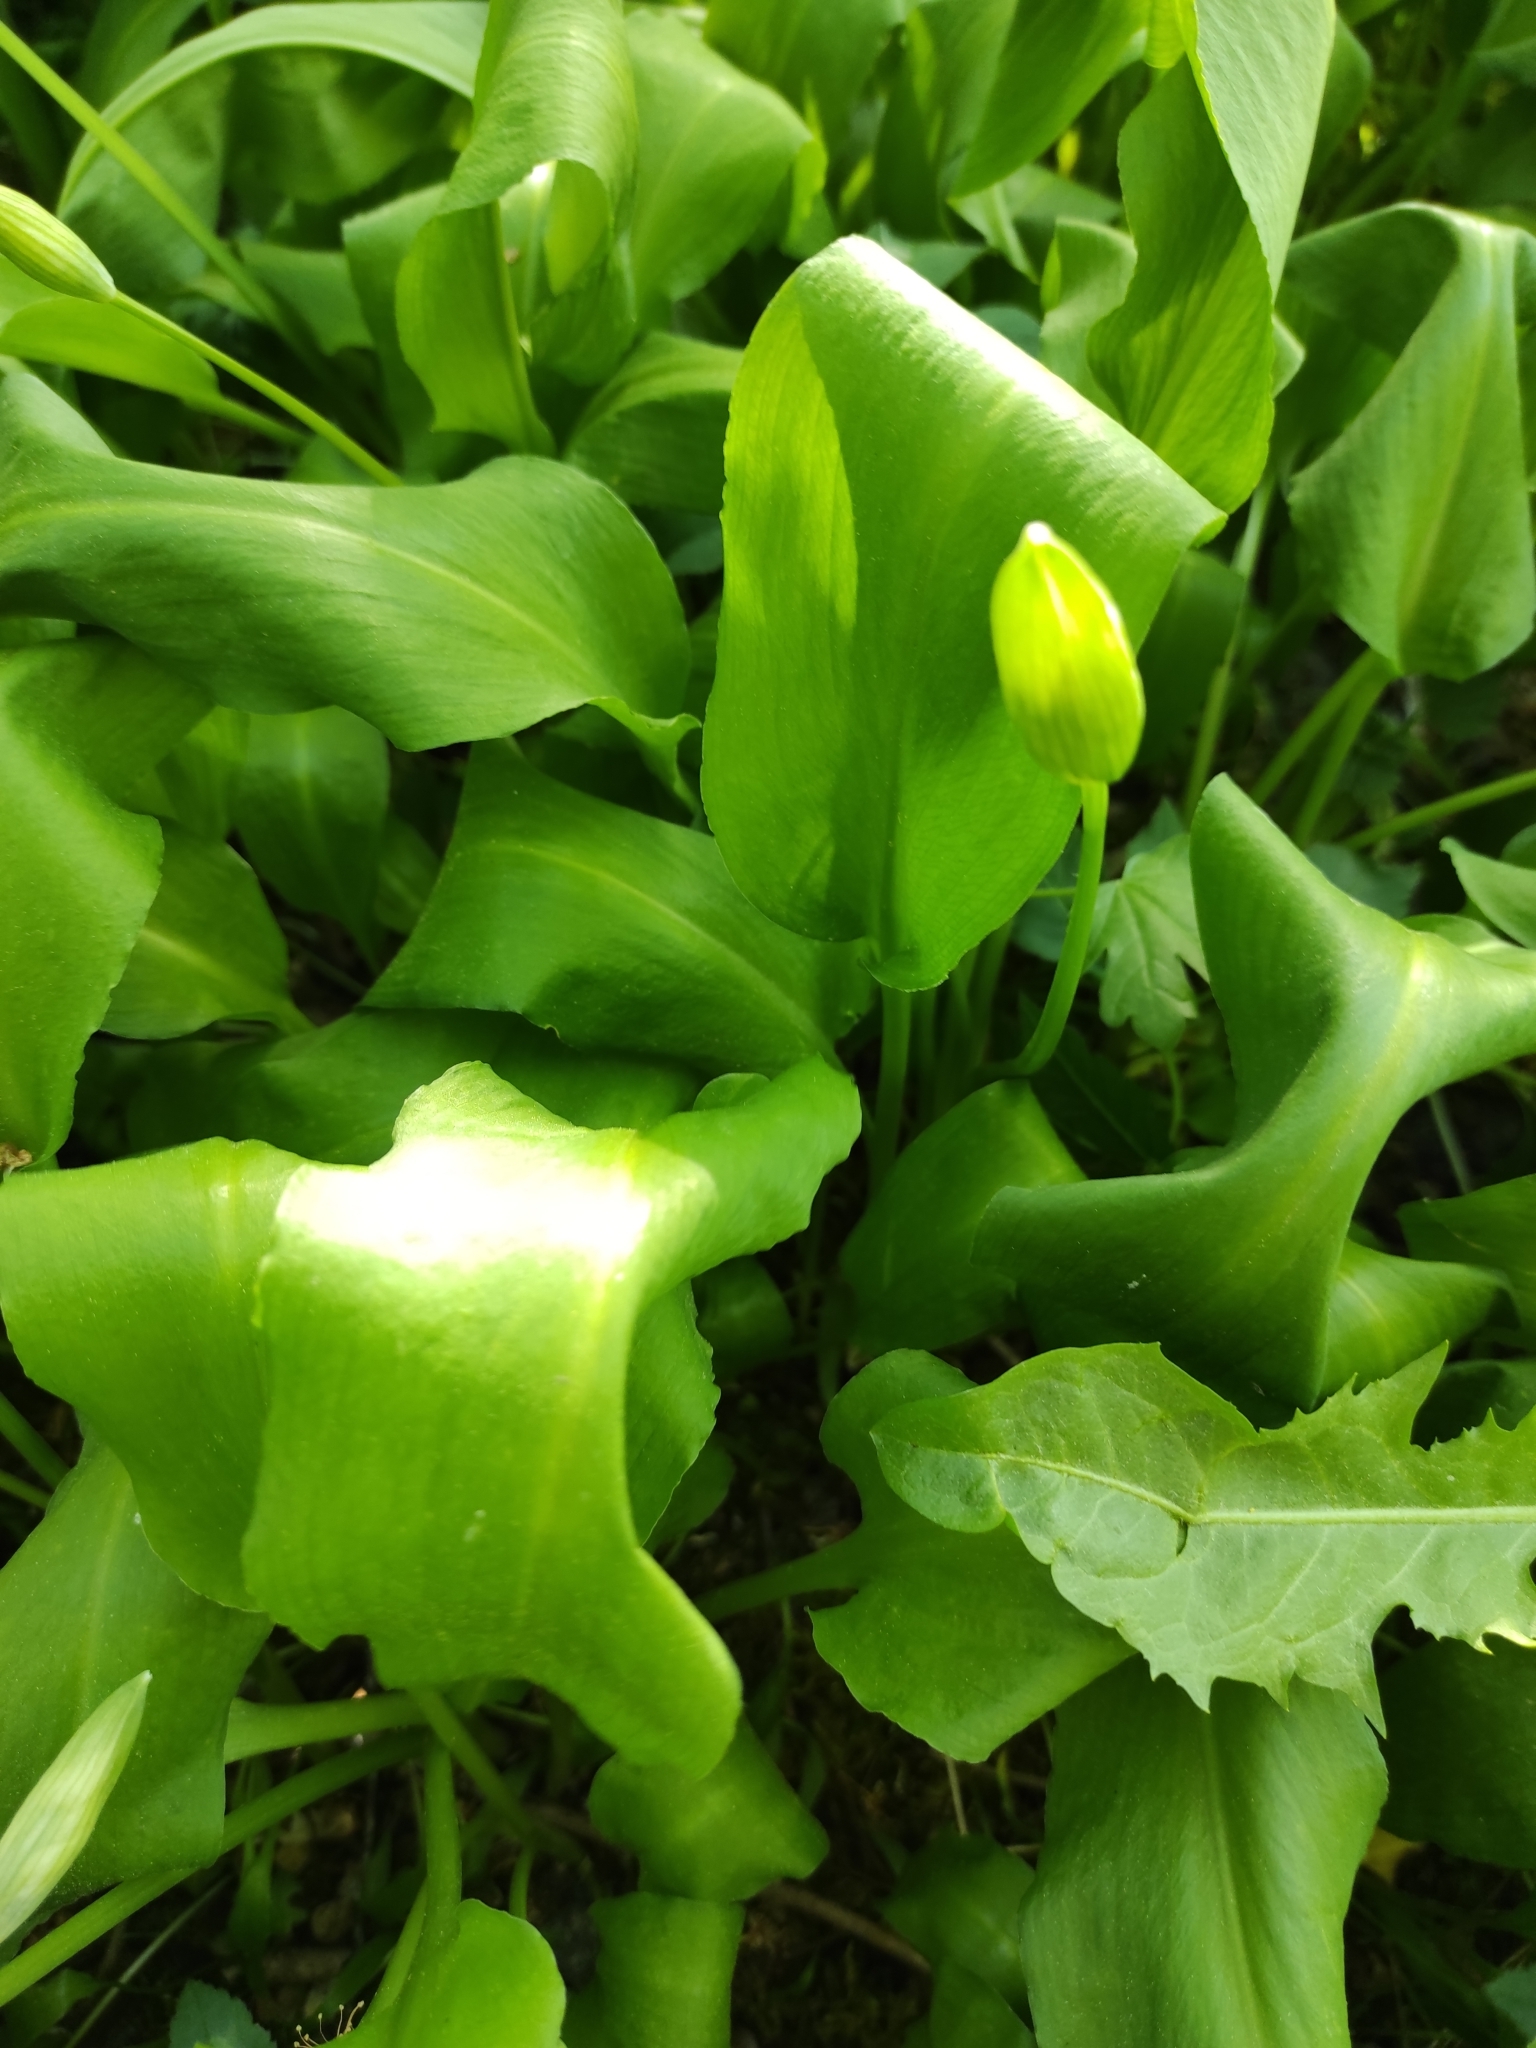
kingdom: Plantae
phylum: Tracheophyta
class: Liliopsida
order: Asparagales
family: Amaryllidaceae
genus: Allium
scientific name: Allium ursinum
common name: Ramsons
